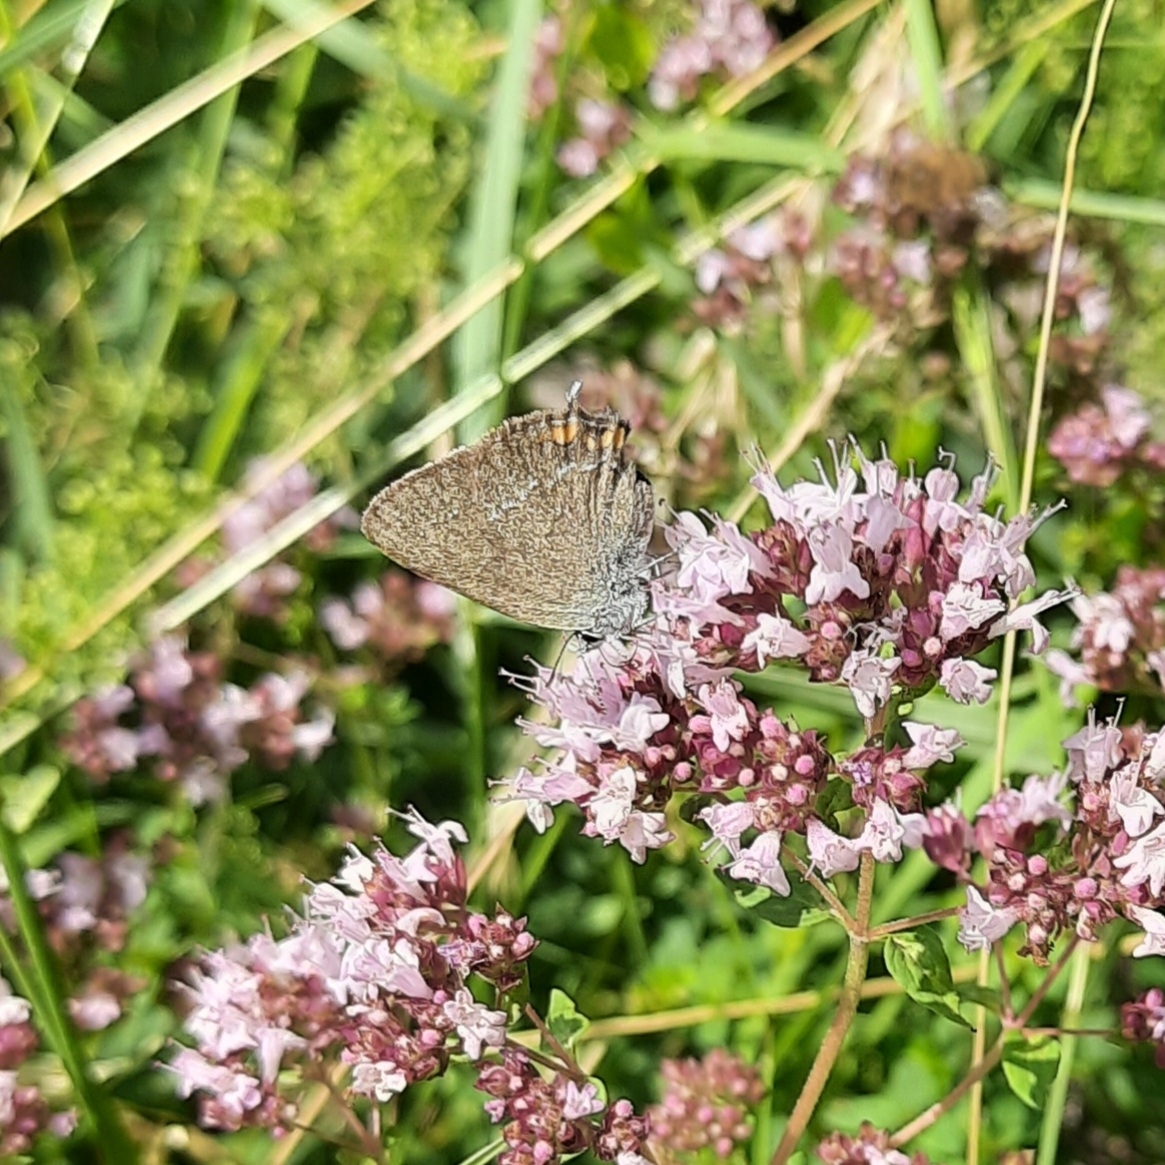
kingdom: Animalia
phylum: Arthropoda
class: Insecta
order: Lepidoptera
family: Lycaenidae
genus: Strymon
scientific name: Strymon acaciae
